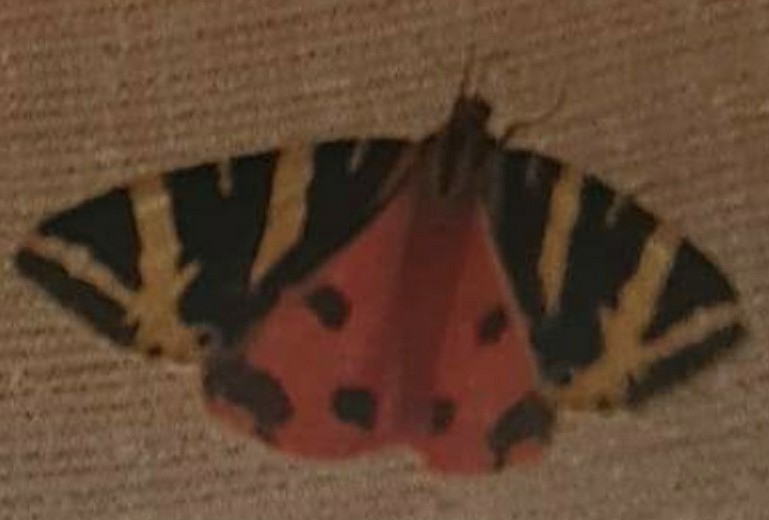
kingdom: Animalia
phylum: Arthropoda
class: Insecta
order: Lepidoptera
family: Erebidae
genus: Euplagia
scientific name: Euplagia quadripunctaria
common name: Jersey tiger
